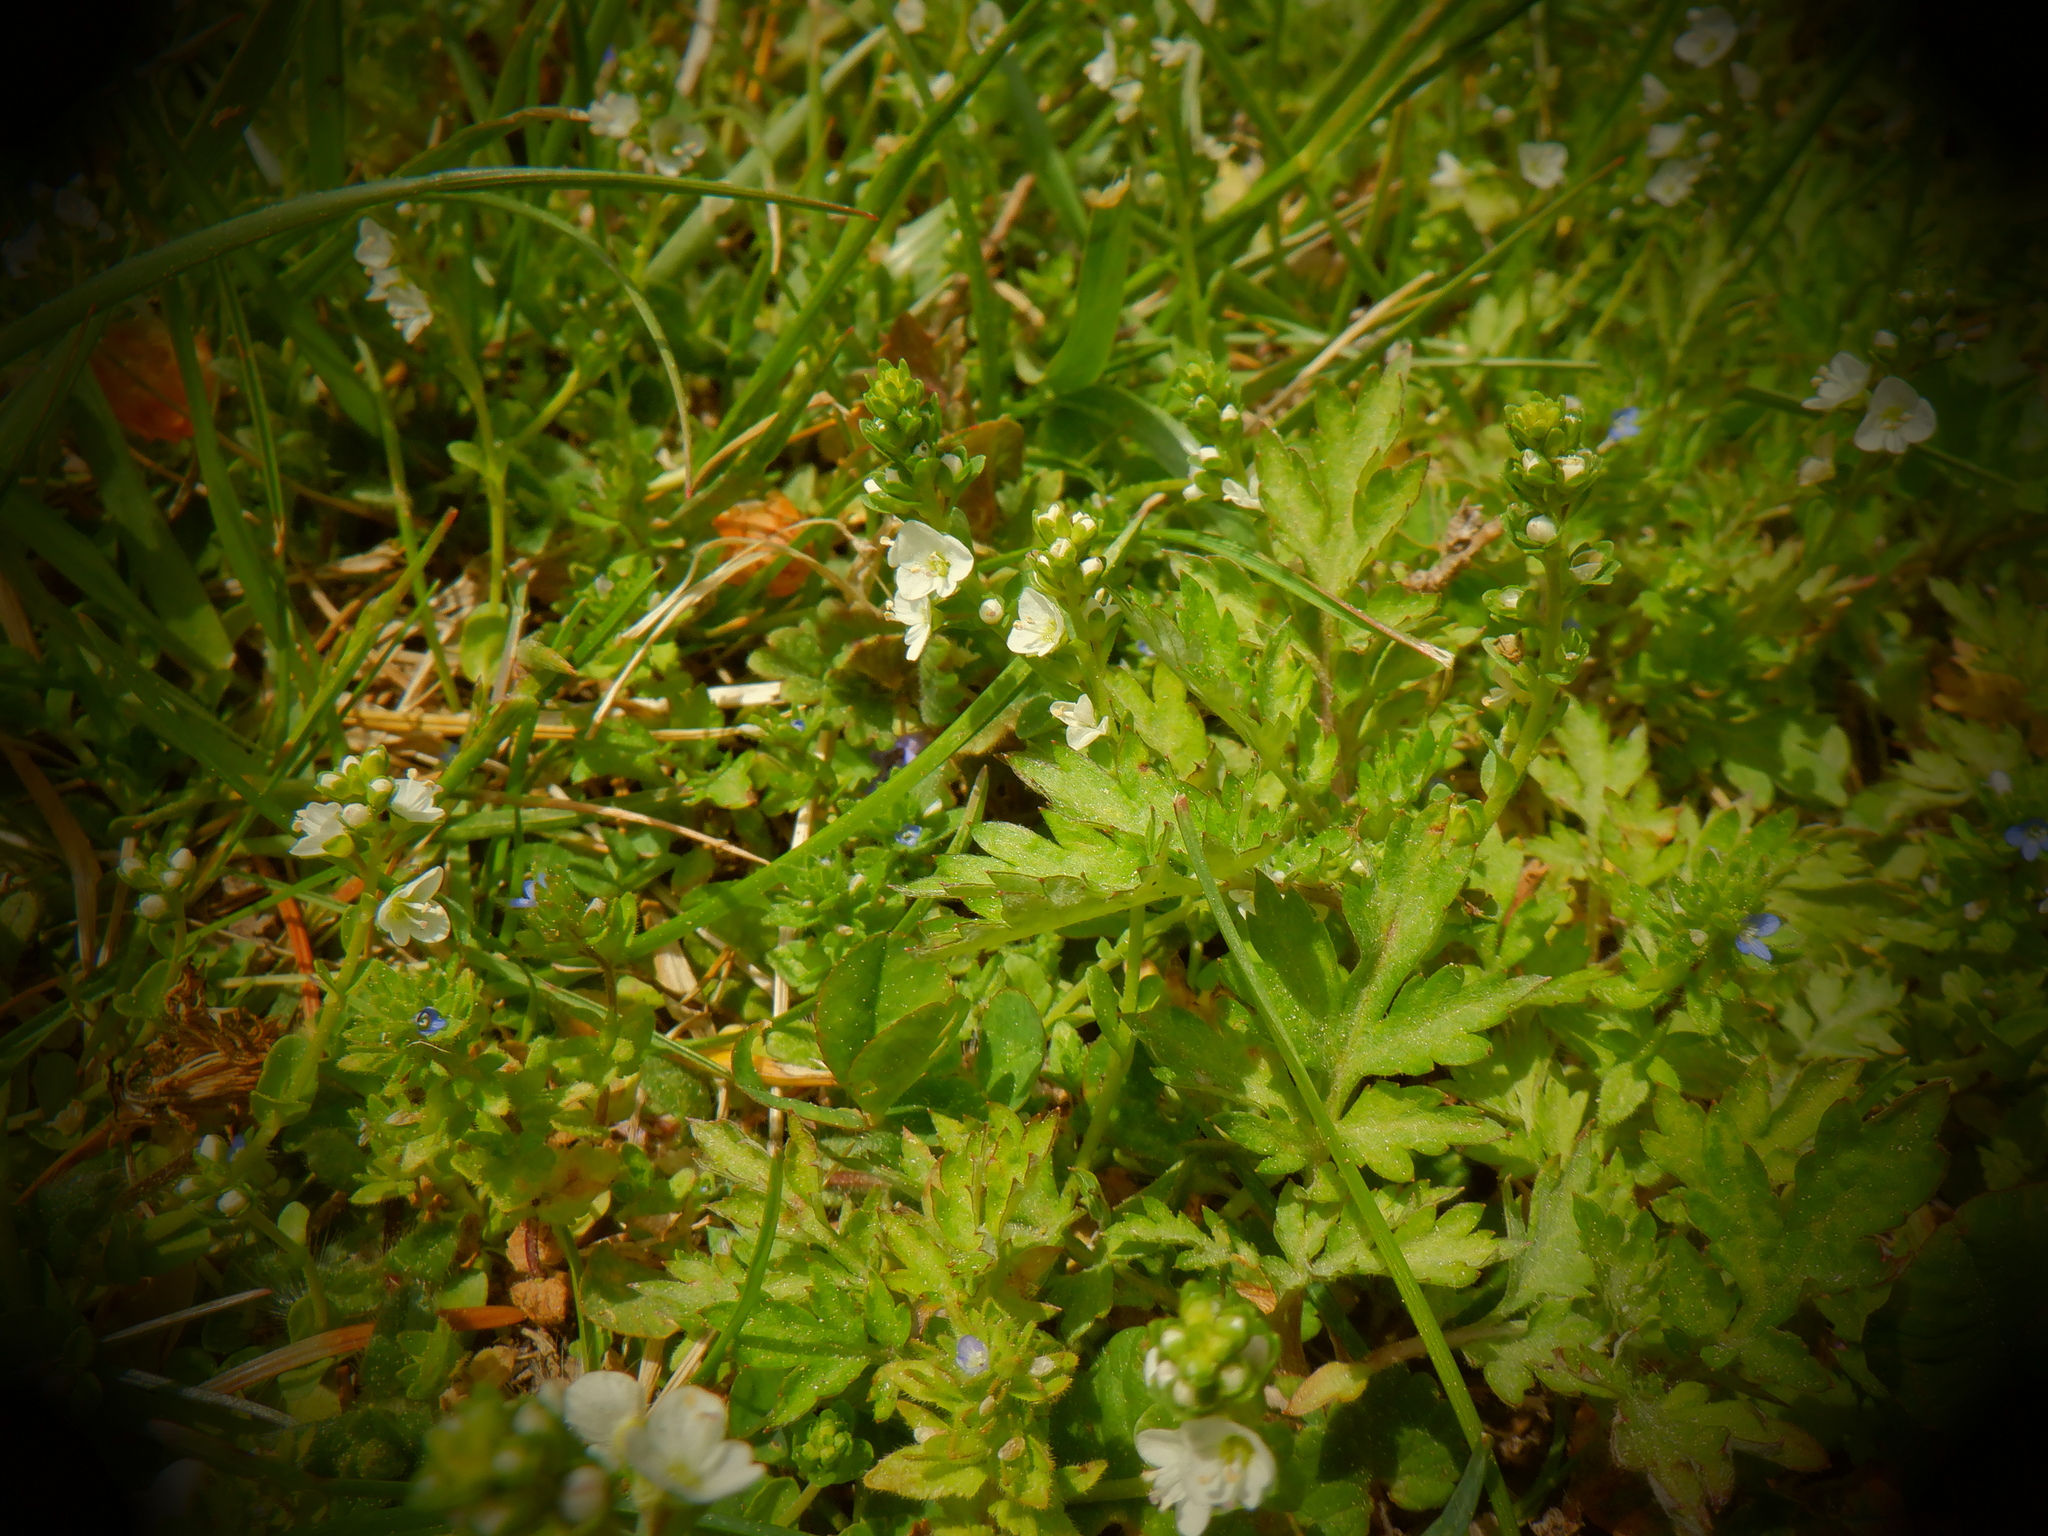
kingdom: Plantae
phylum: Tracheophyta
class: Magnoliopsida
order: Lamiales
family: Plantaginaceae
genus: Veronica
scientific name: Veronica serpyllifolia
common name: Thyme-leaved speedwell
